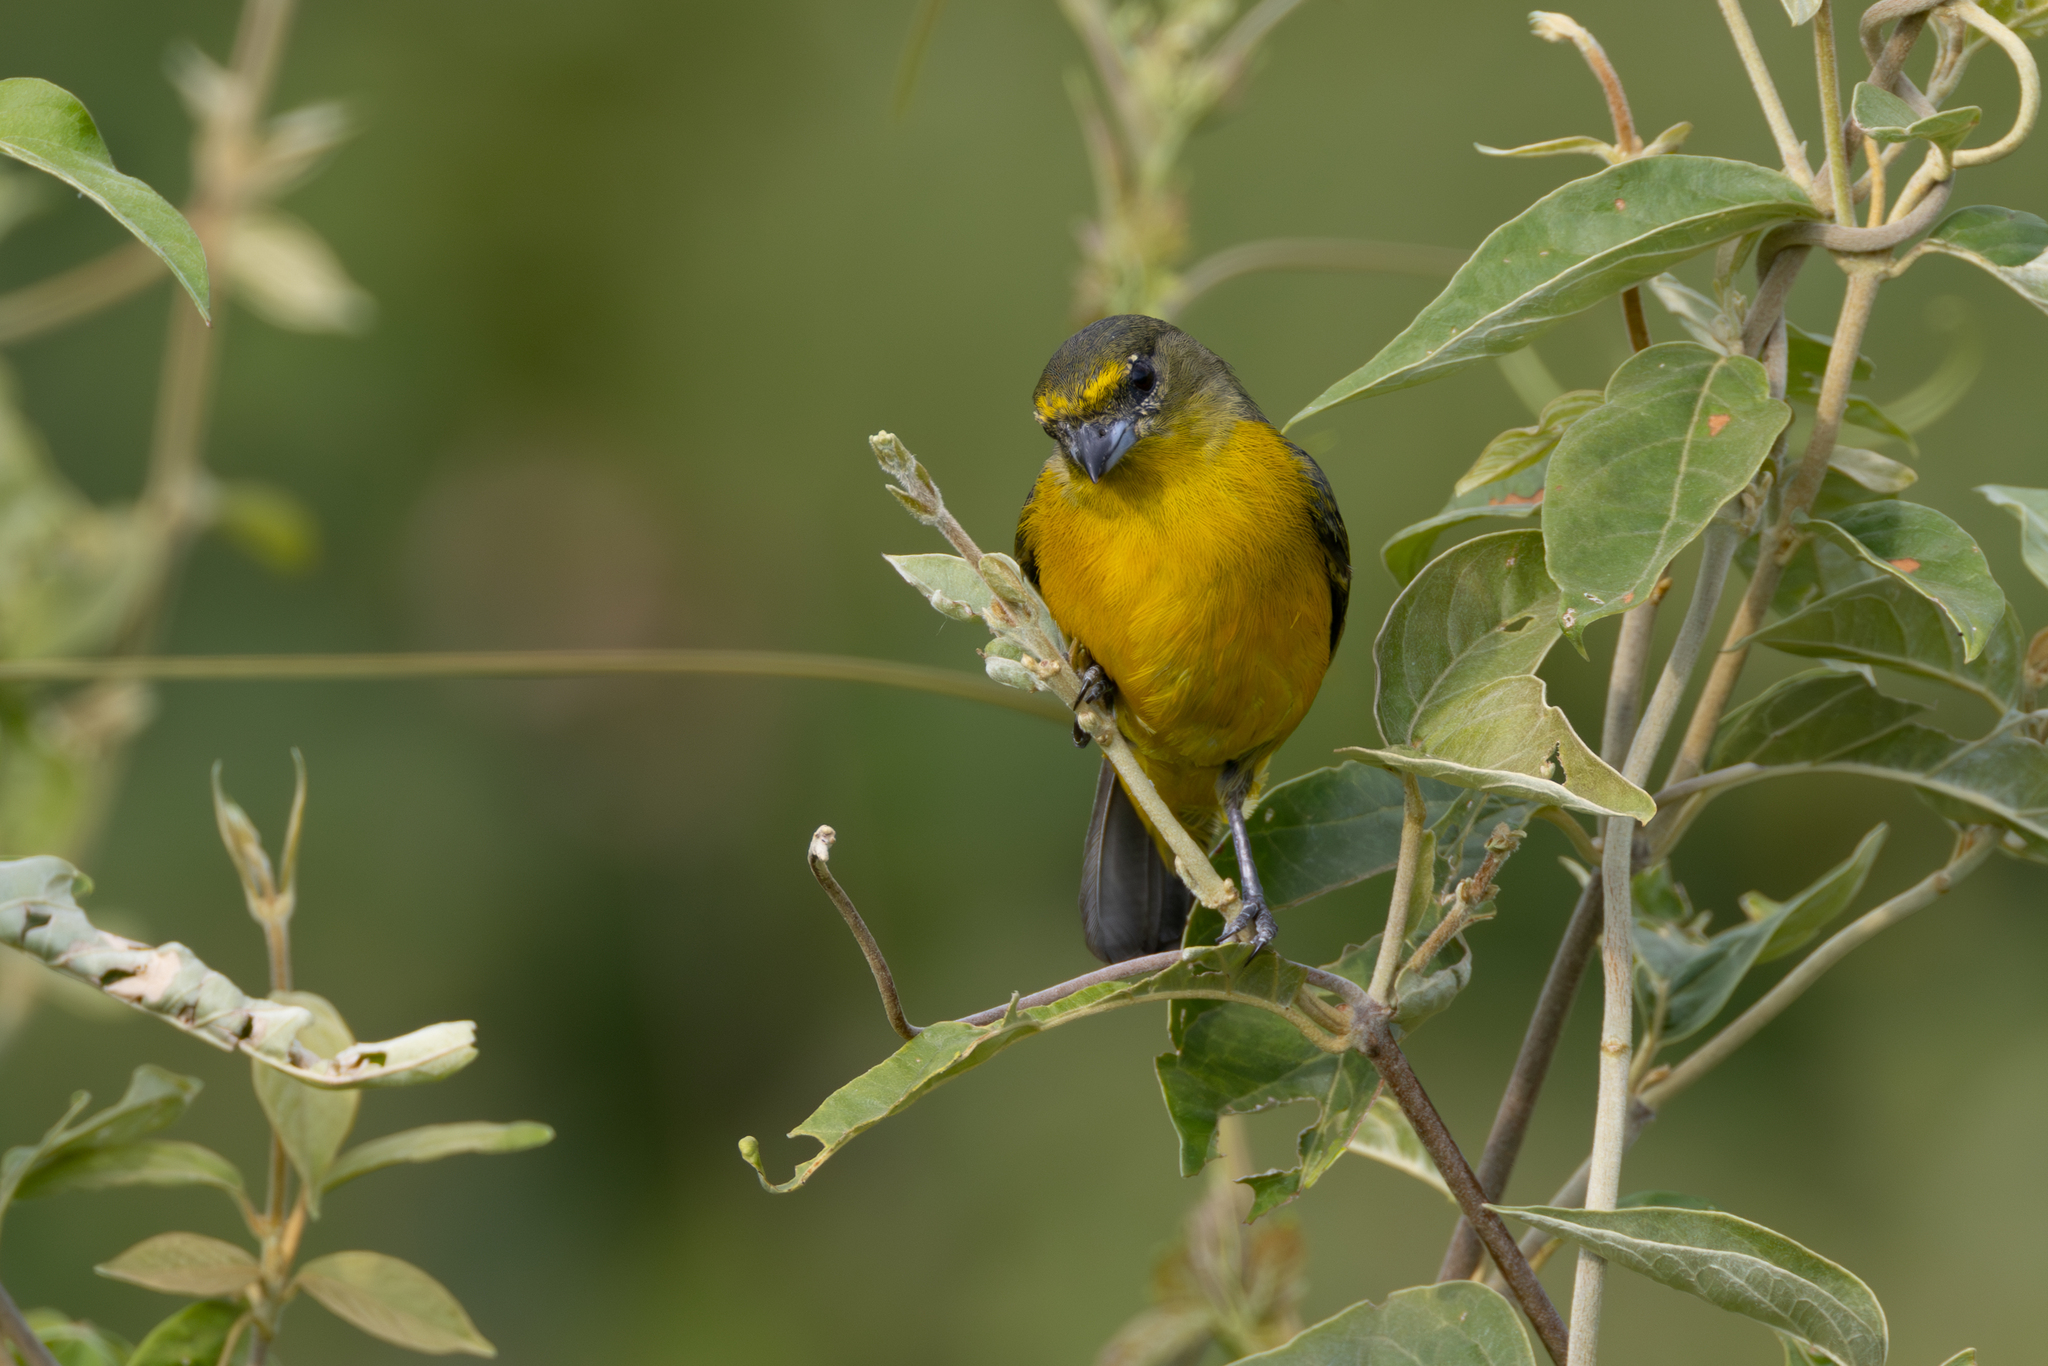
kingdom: Animalia
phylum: Chordata
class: Aves
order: Passeriformes
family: Fringillidae
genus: Euphonia
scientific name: Euphonia concinna
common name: Velvet-fronted euphonia
